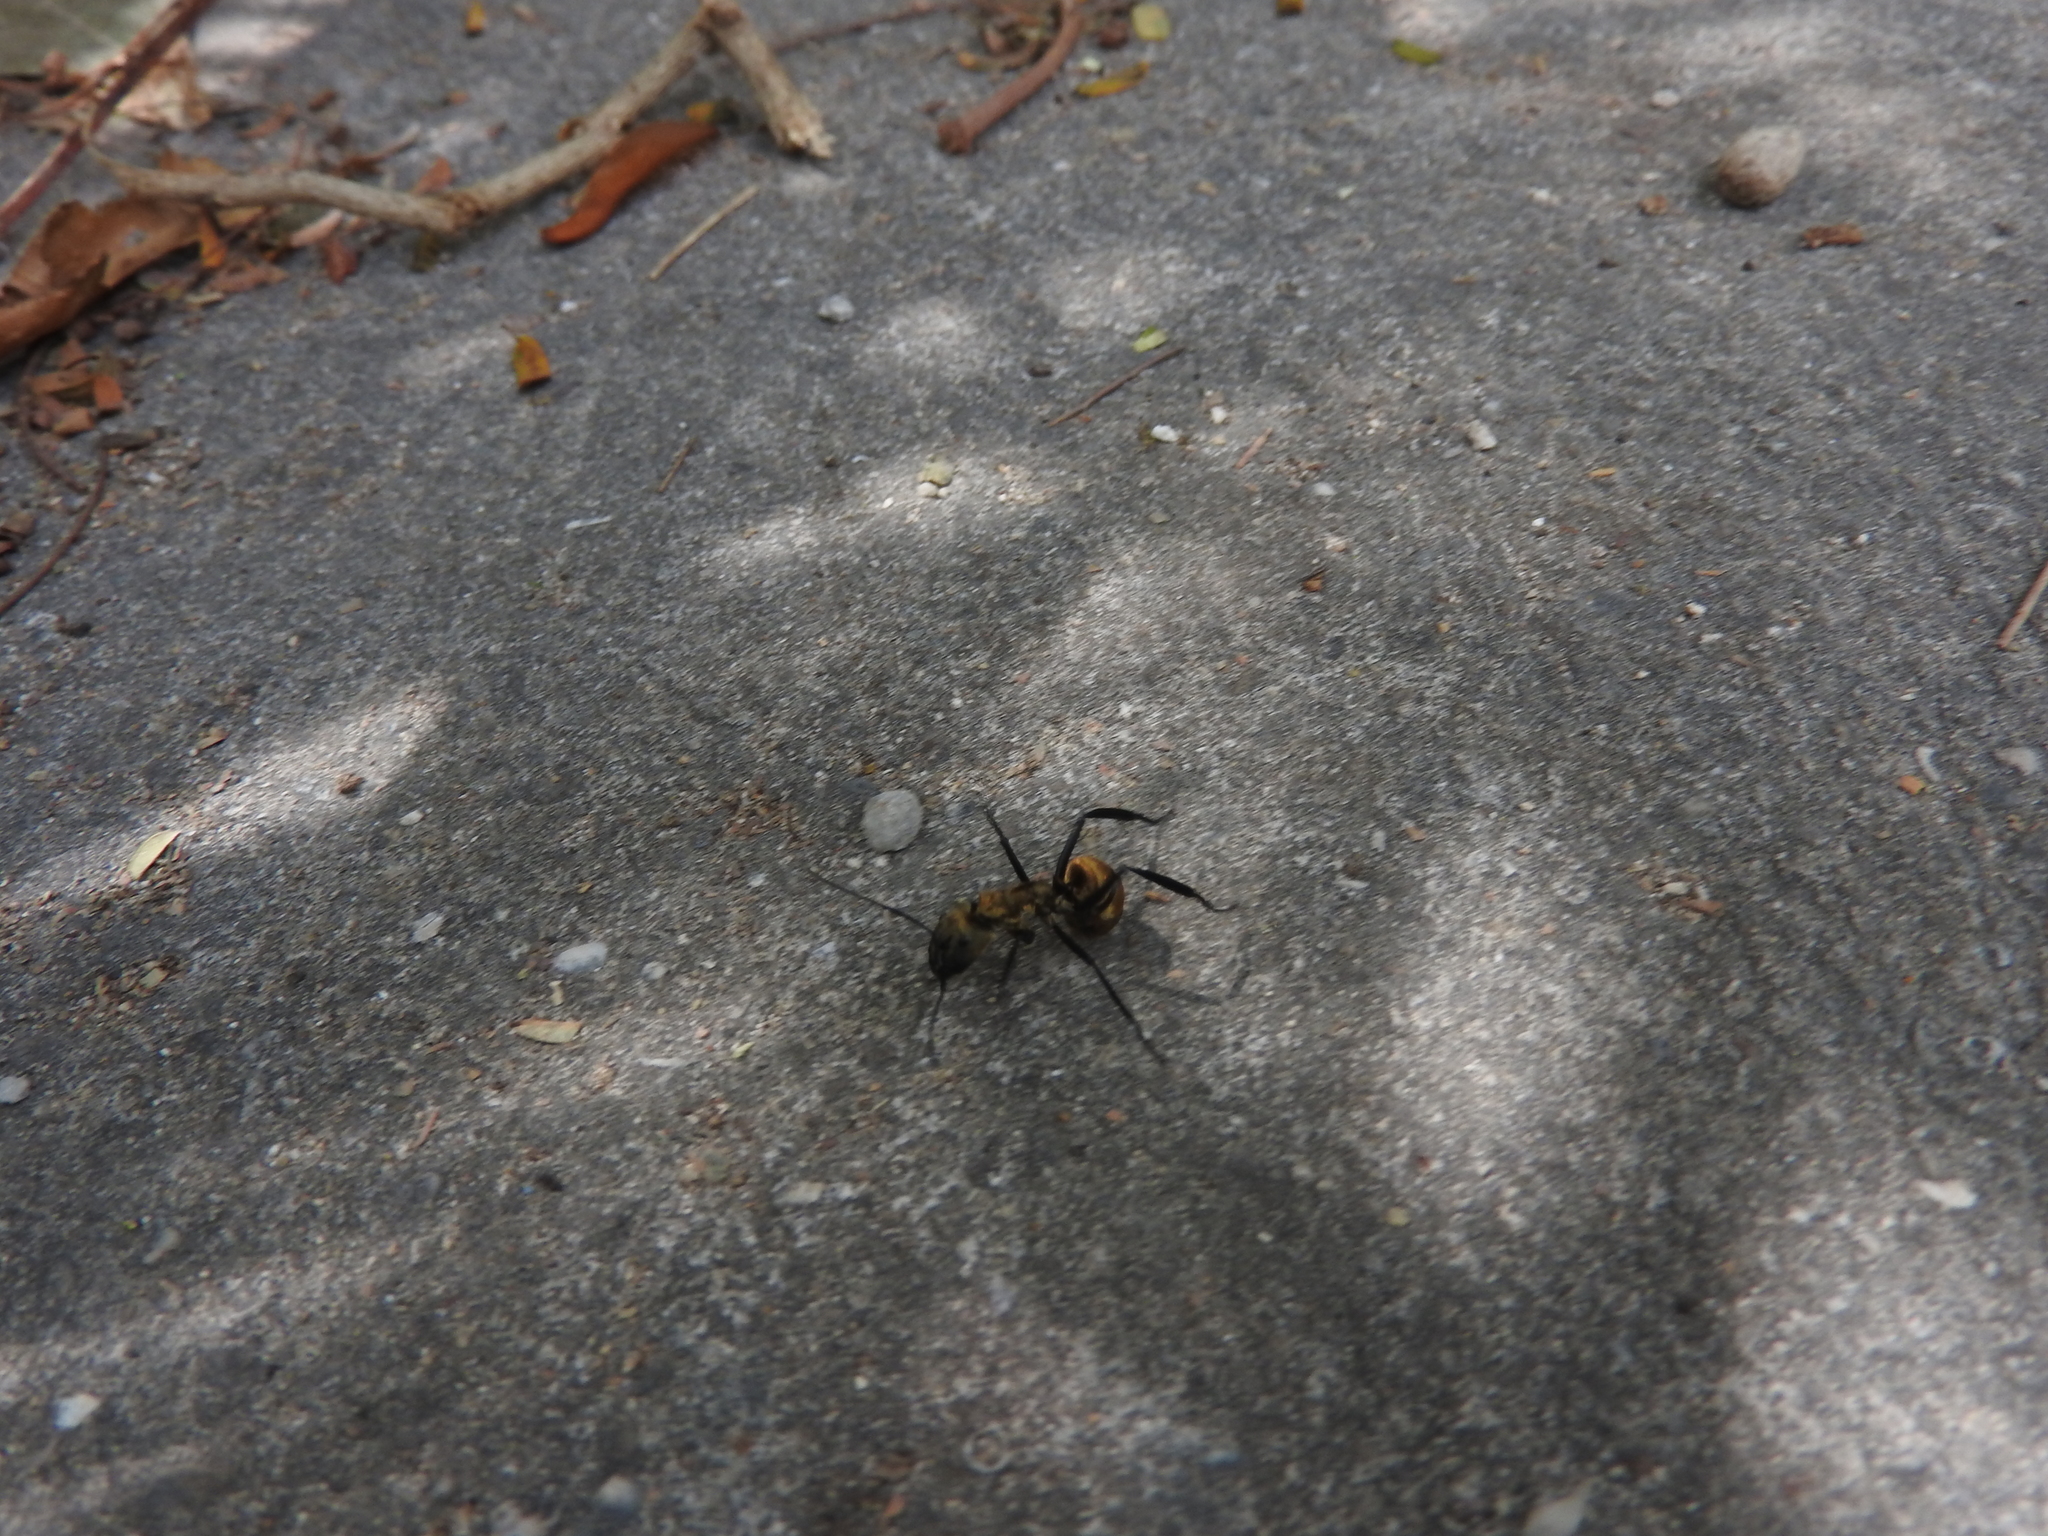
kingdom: Animalia
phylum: Arthropoda
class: Insecta
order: Hymenoptera
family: Formicidae
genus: Camponotus
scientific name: Camponotus sericeiventris
